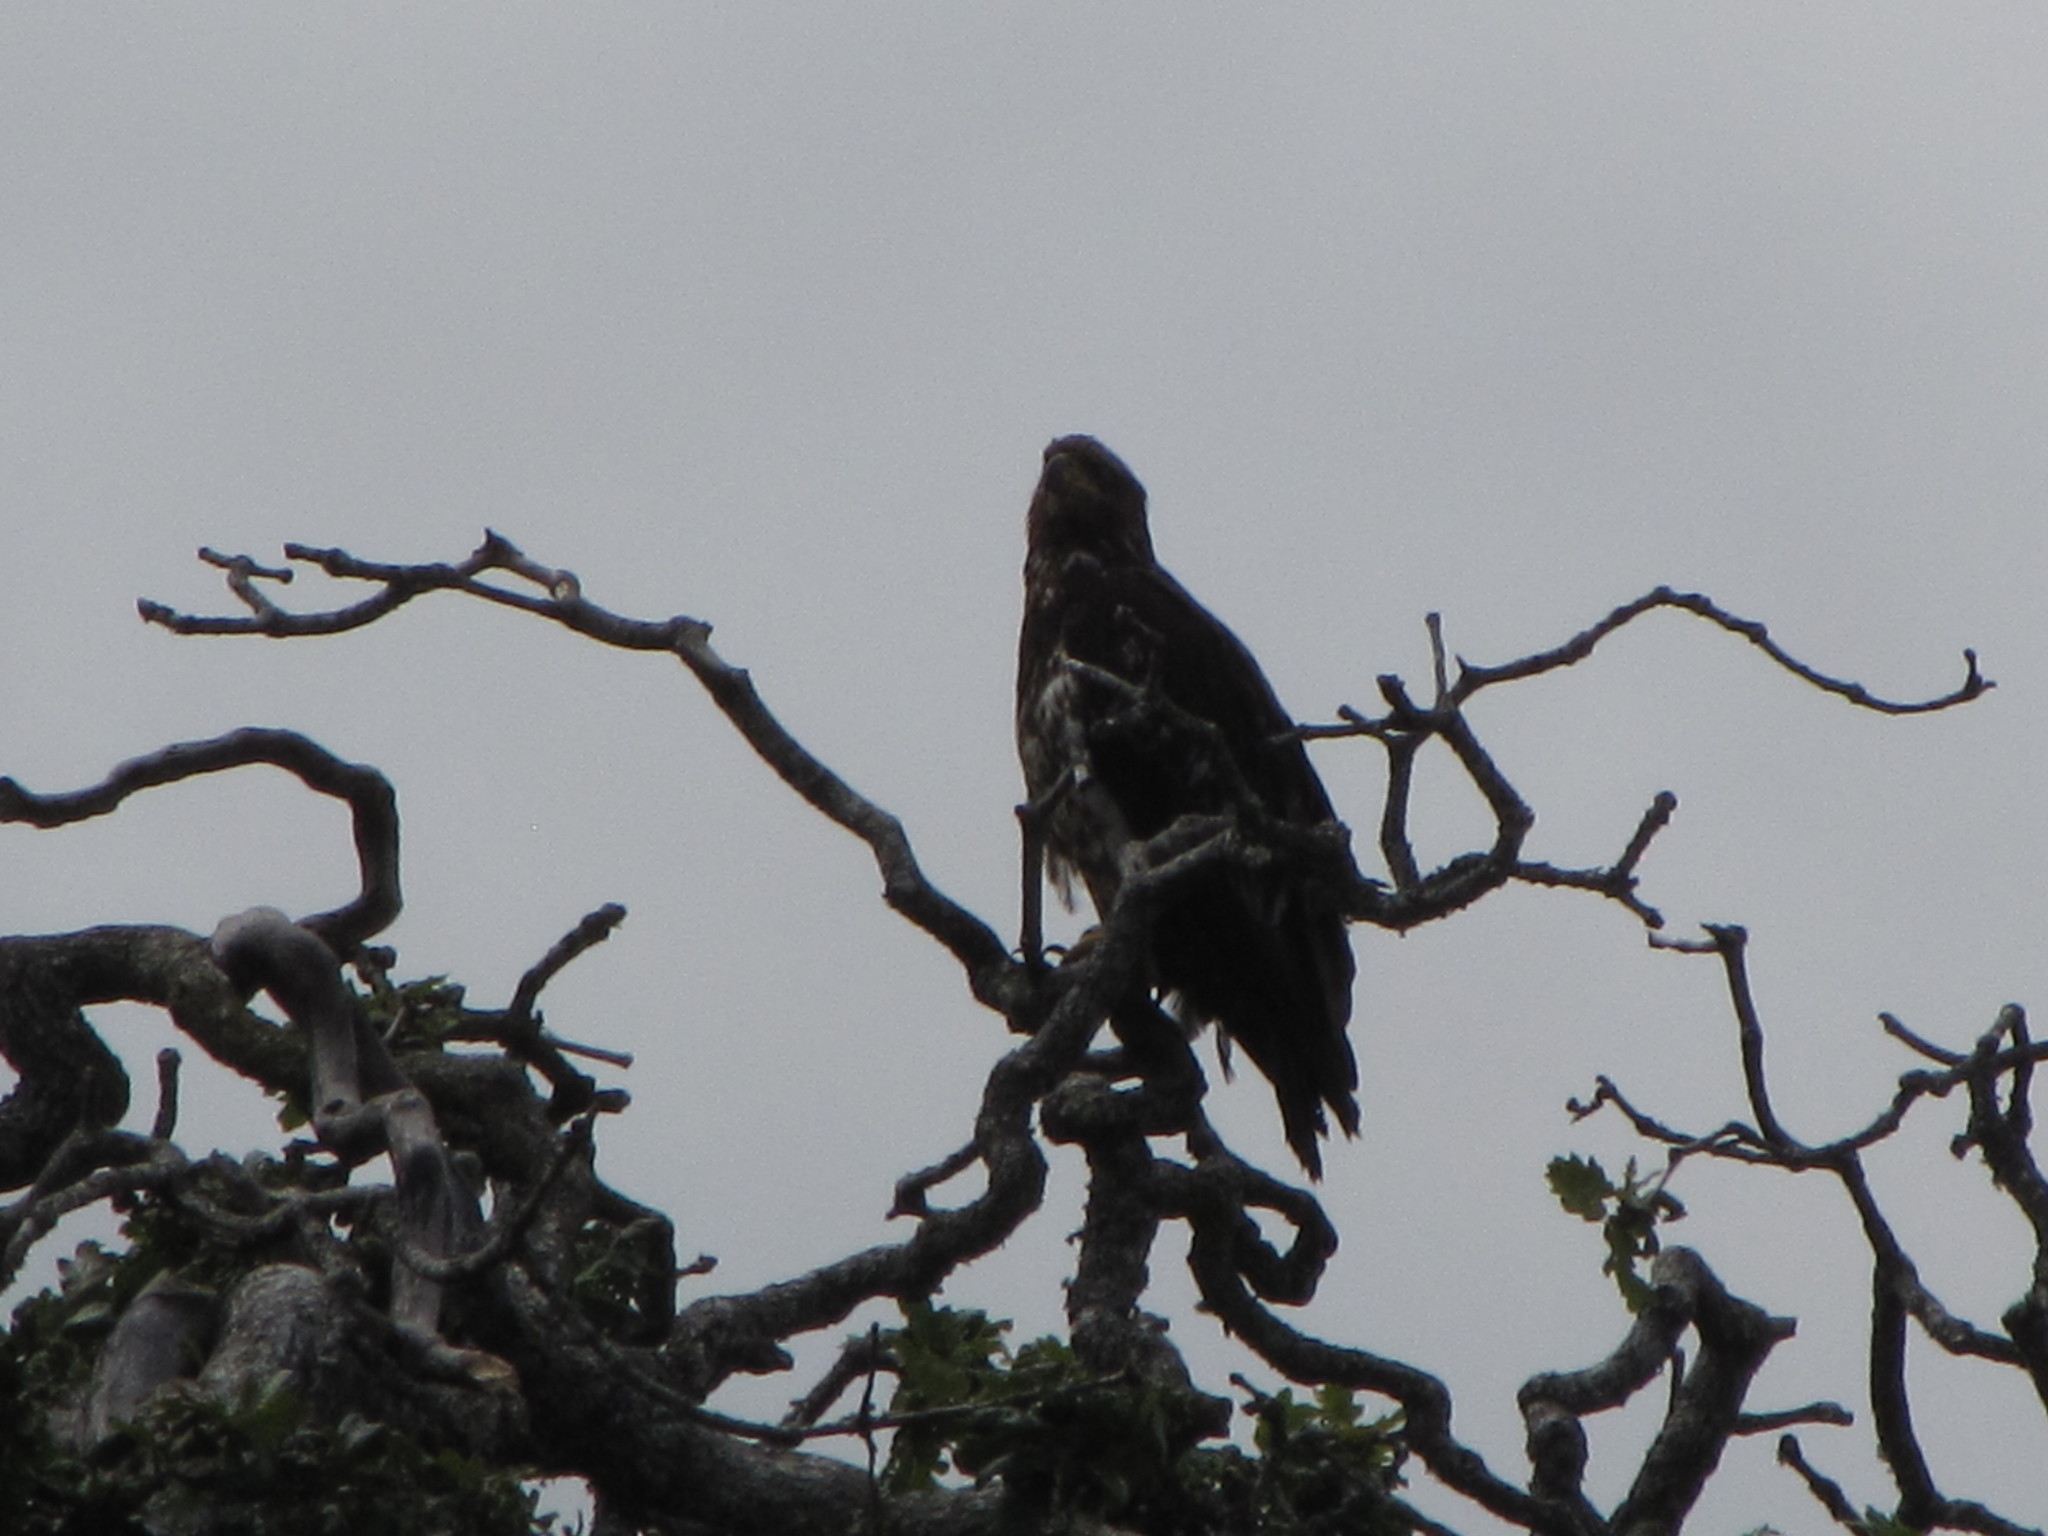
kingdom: Animalia
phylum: Chordata
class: Aves
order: Accipitriformes
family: Accipitridae
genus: Haliaeetus
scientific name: Haliaeetus leucocephalus
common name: Bald eagle
